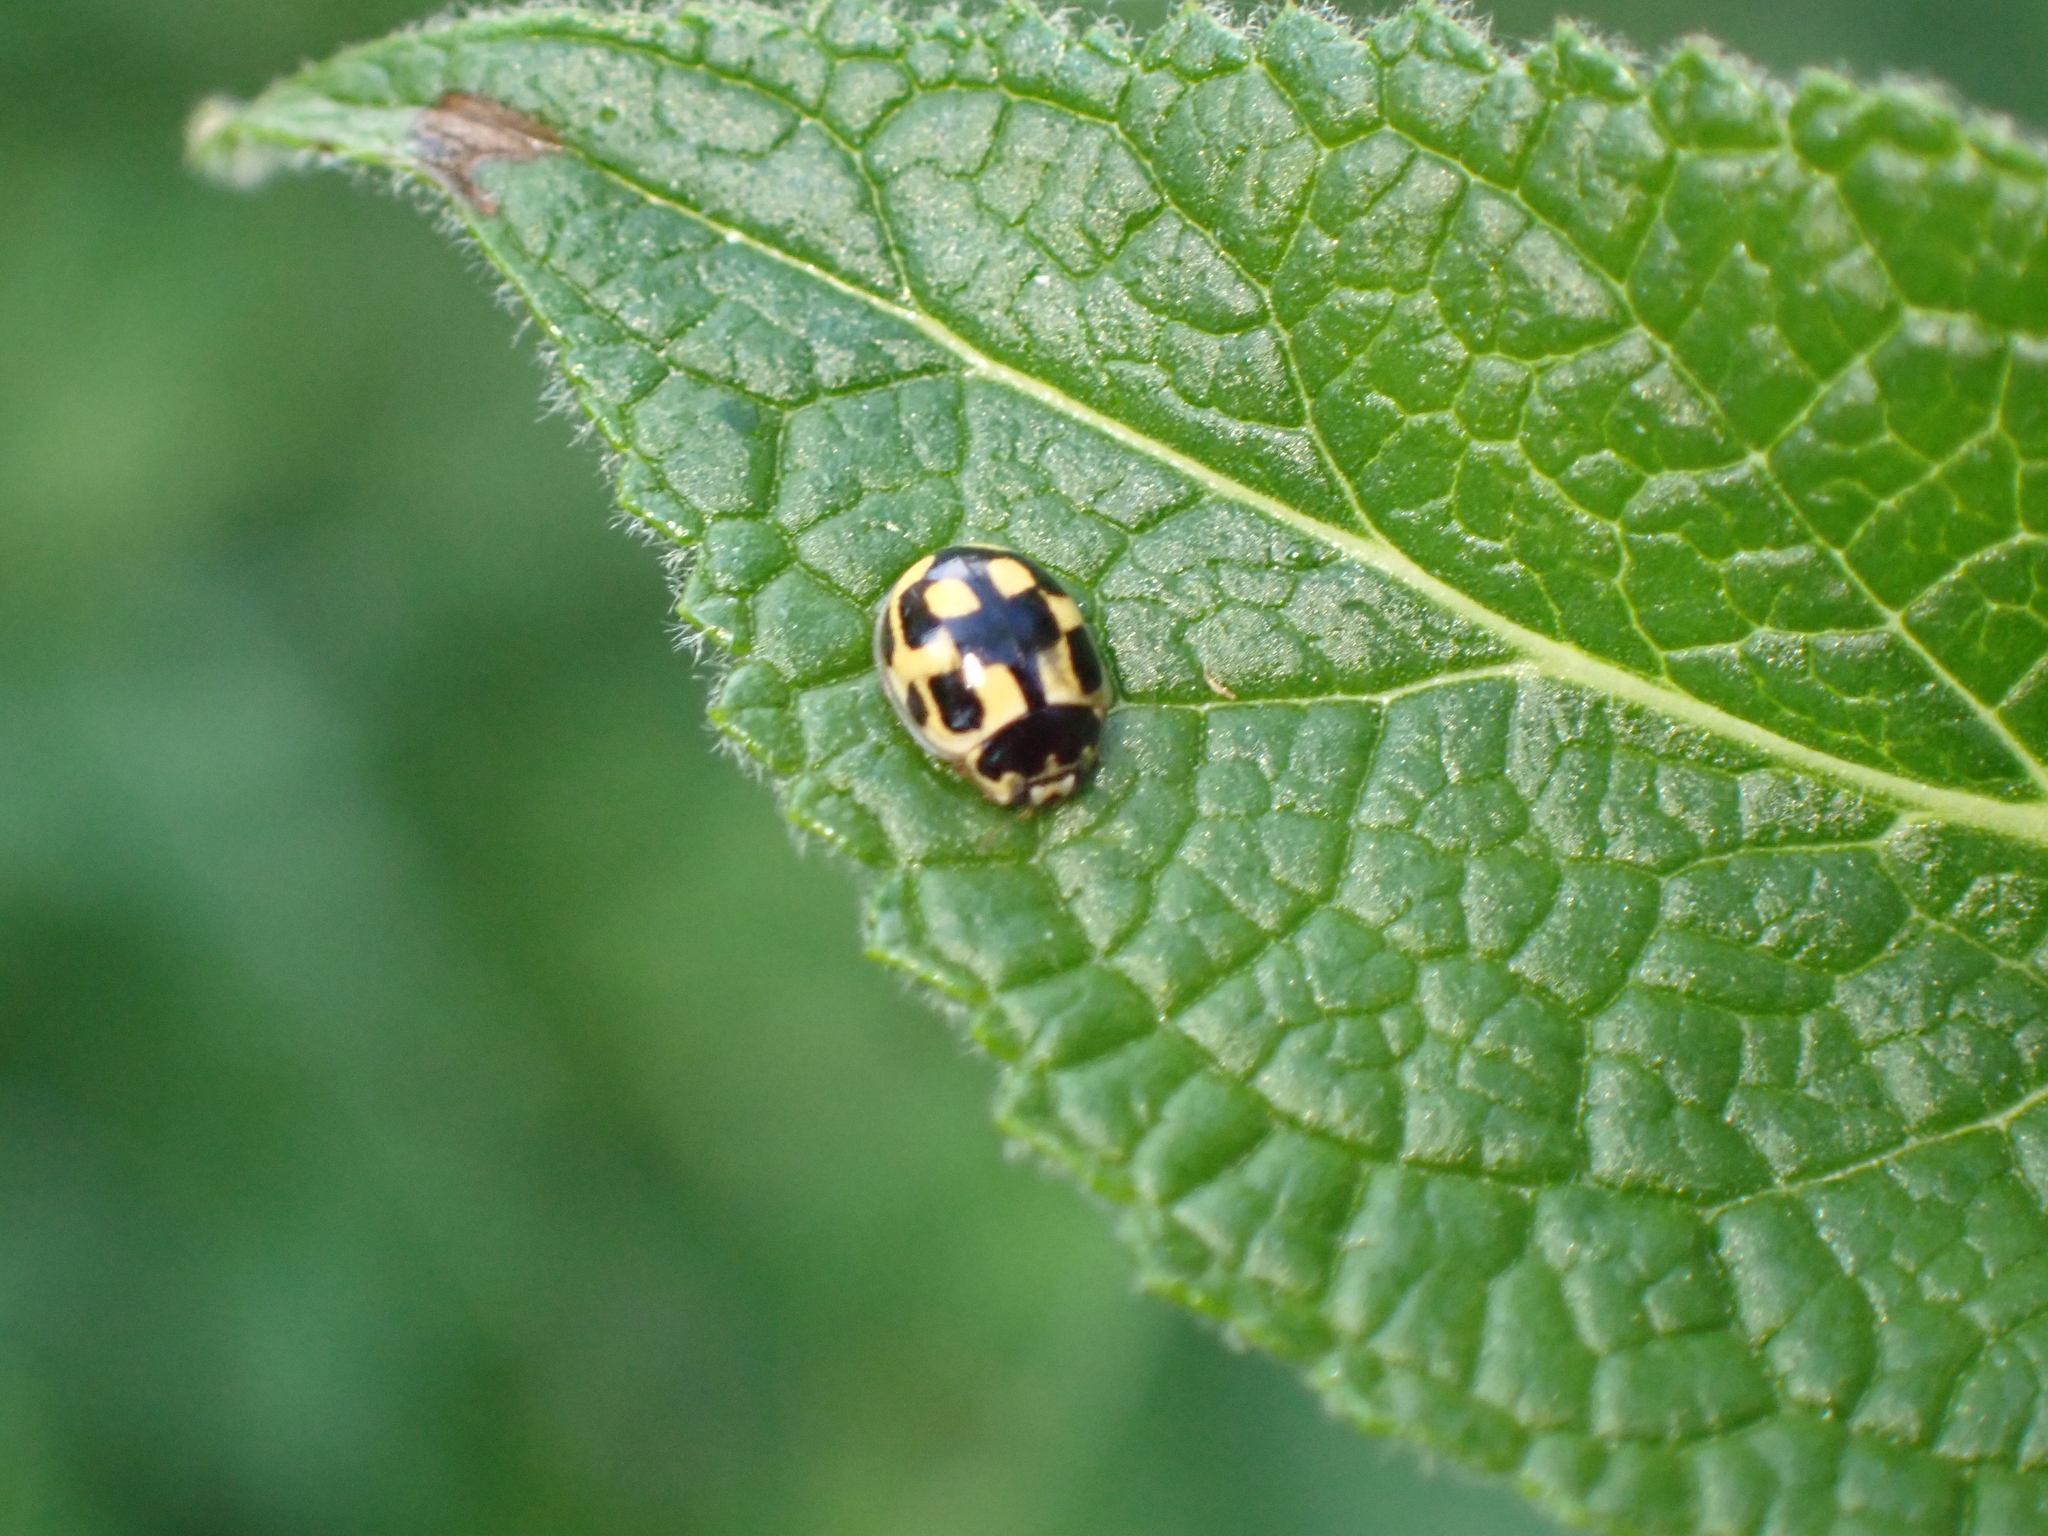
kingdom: Animalia
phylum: Arthropoda
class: Insecta
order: Coleoptera
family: Coccinellidae
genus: Propylaea
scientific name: Propylaea quatuordecimpunctata
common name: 14-spotted ladybird beetle
